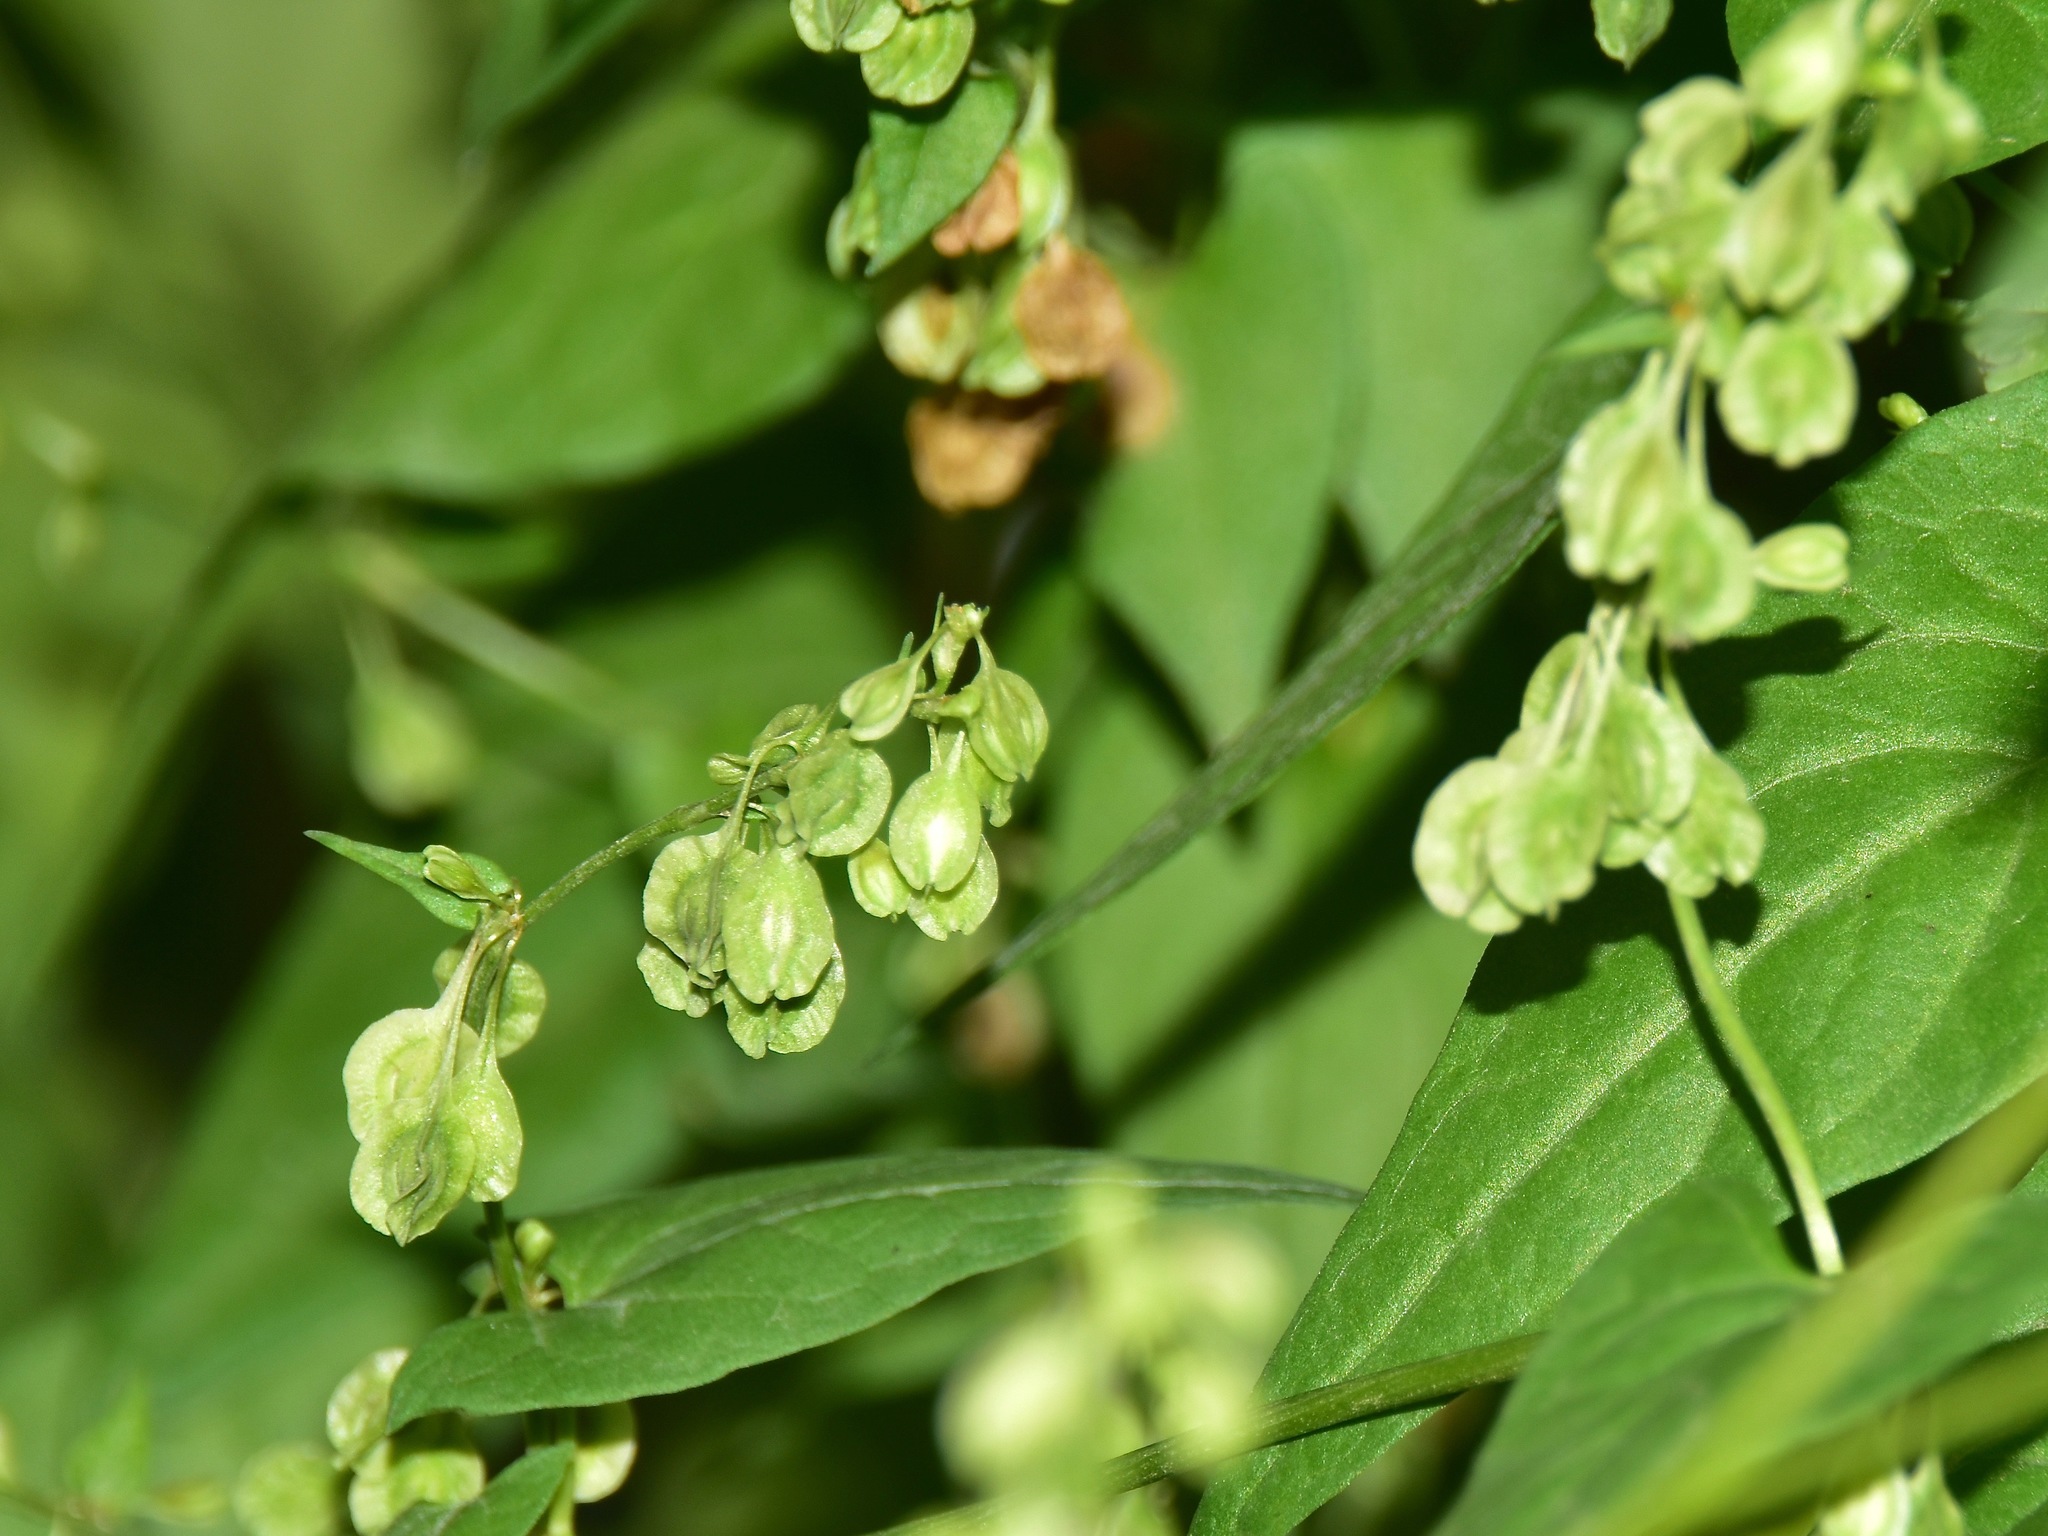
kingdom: Plantae
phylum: Tracheophyta
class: Magnoliopsida
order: Caryophyllales
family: Polygonaceae
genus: Fallopia
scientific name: Fallopia dumetorum
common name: Copse-bindweed
